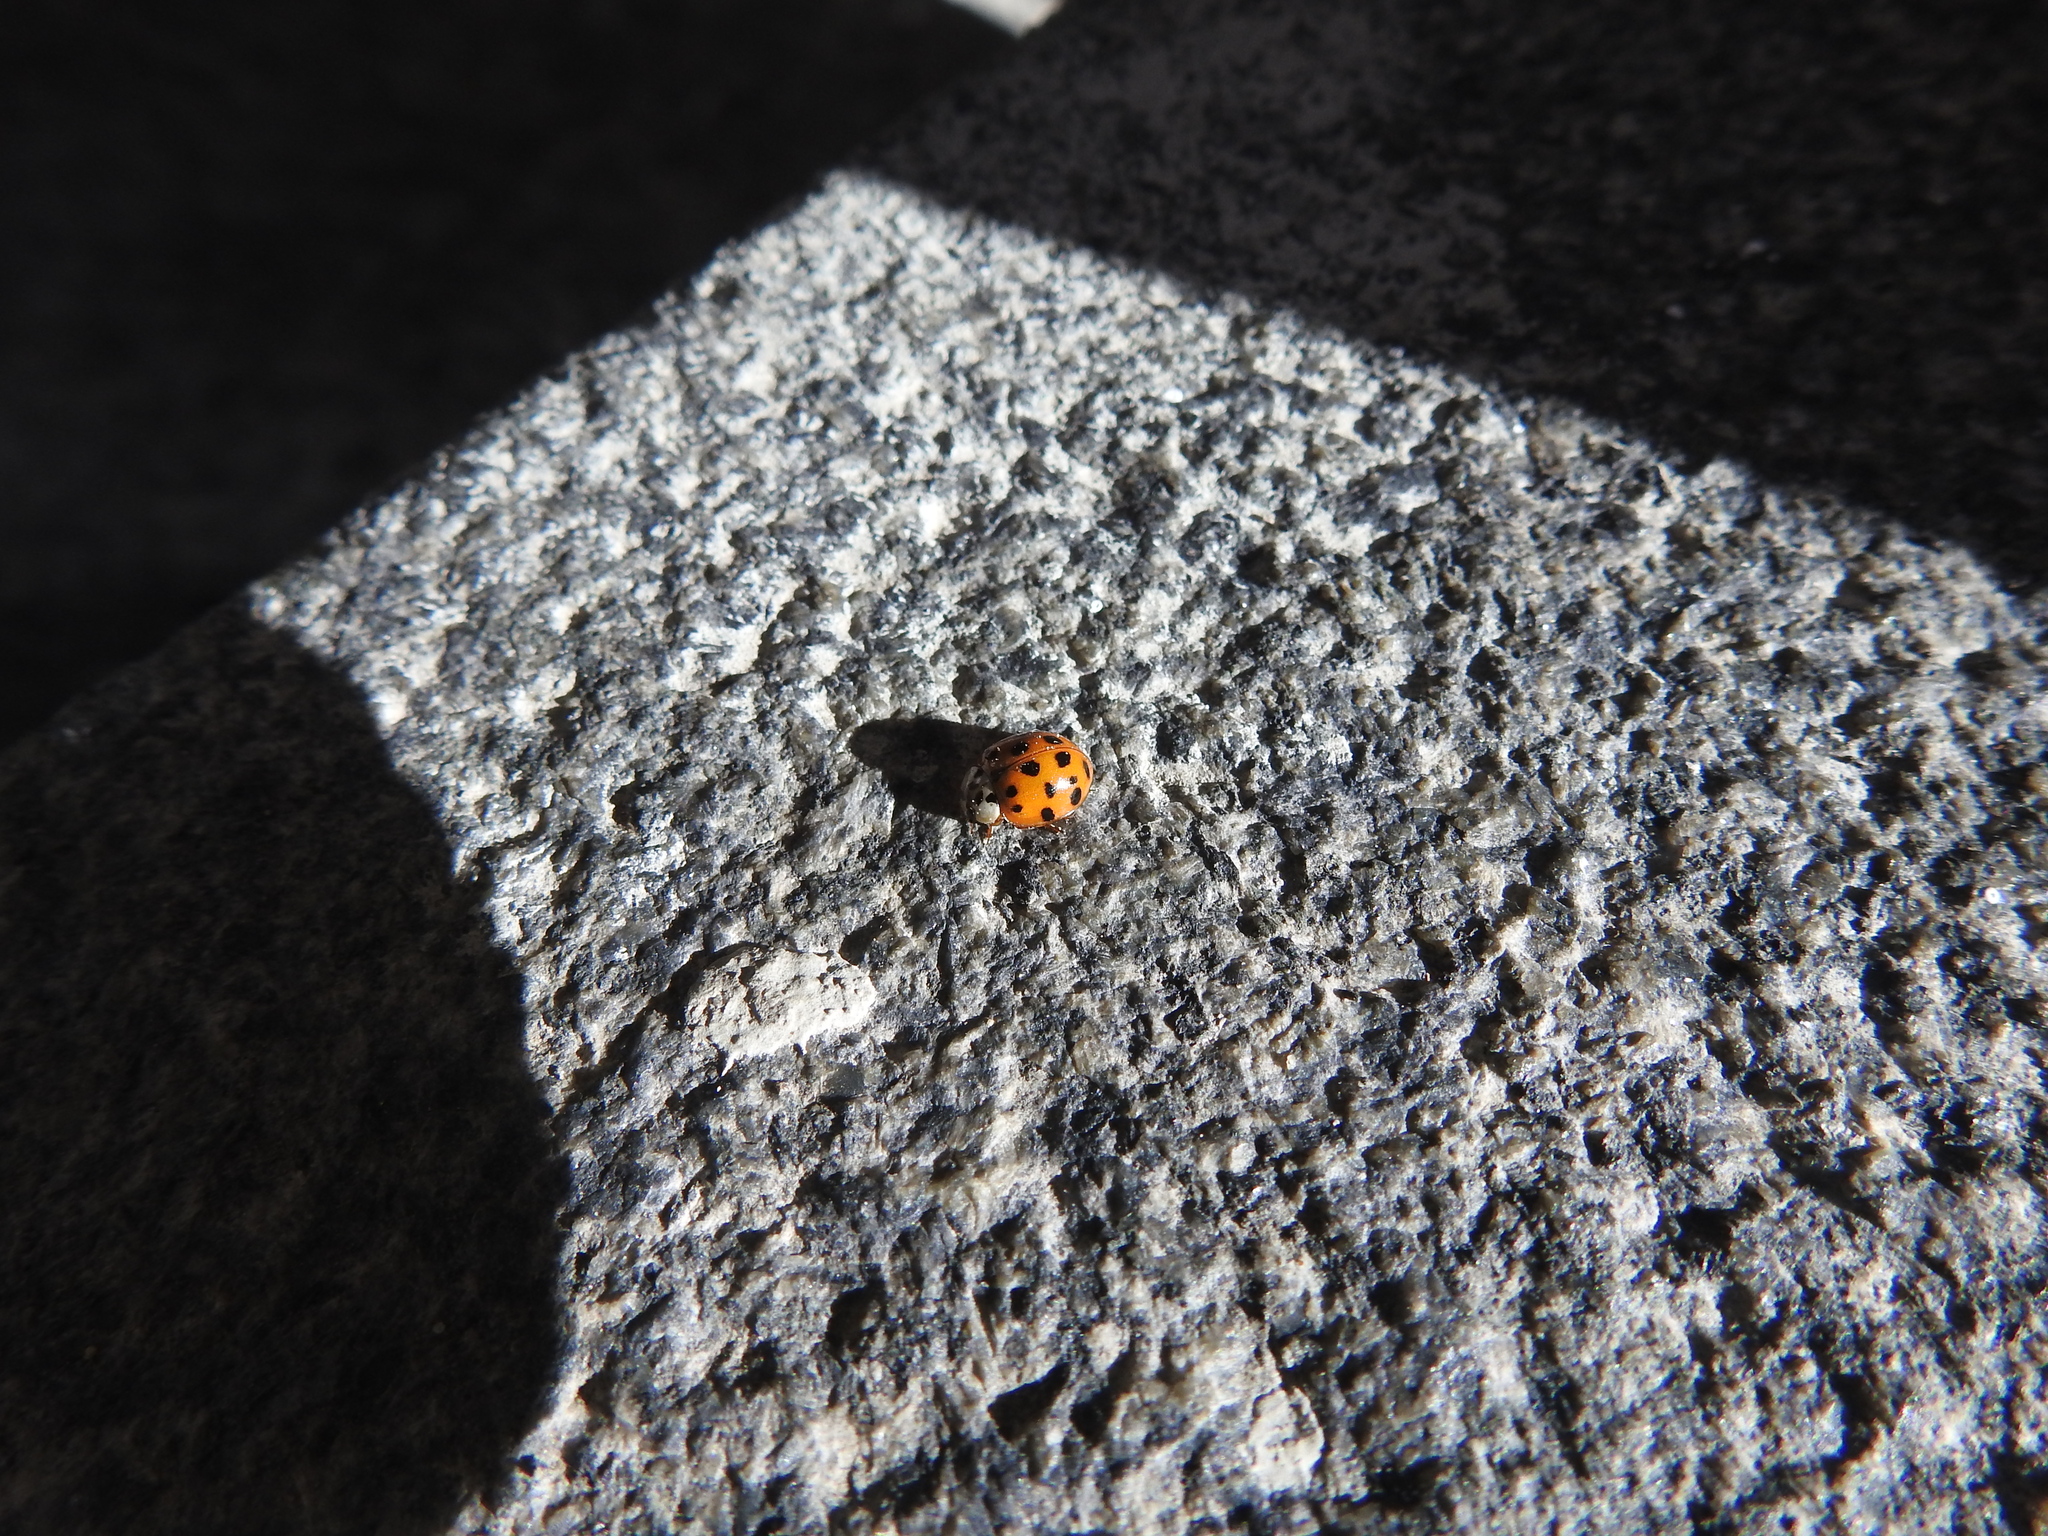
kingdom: Animalia
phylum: Arthropoda
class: Insecta
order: Coleoptera
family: Coccinellidae
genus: Harmonia
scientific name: Harmonia axyridis
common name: Harlequin ladybird
